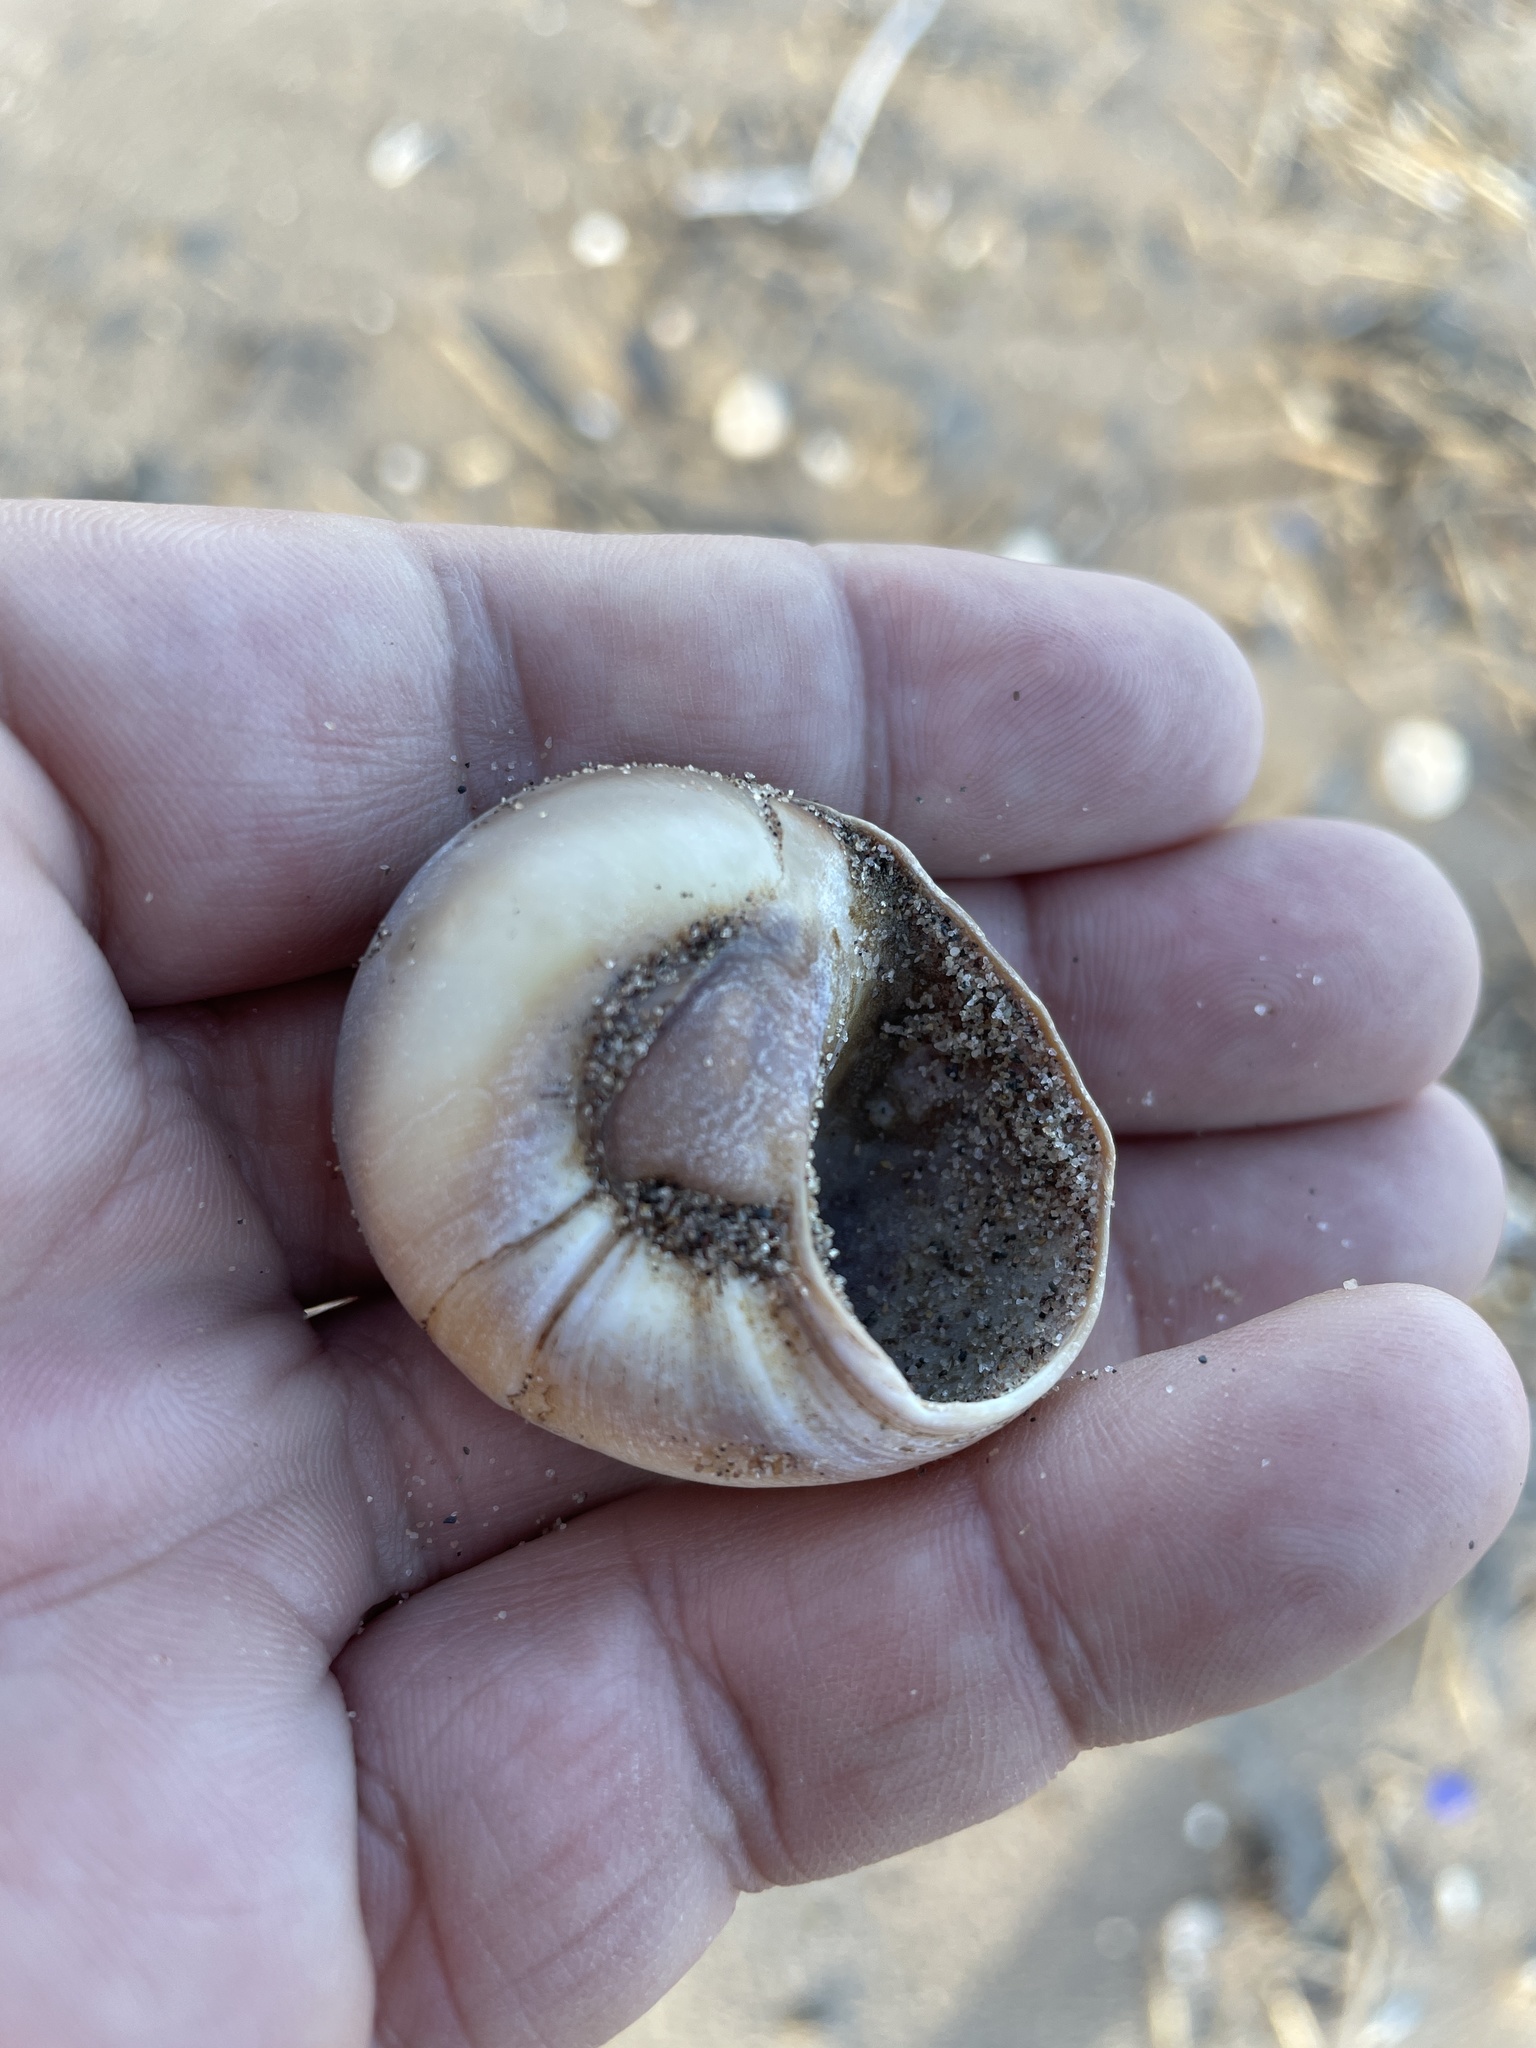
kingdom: Animalia
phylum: Mollusca
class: Gastropoda
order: Littorinimorpha
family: Naticidae
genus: Neverita
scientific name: Neverita duplicata
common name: Lobed moonsnail
